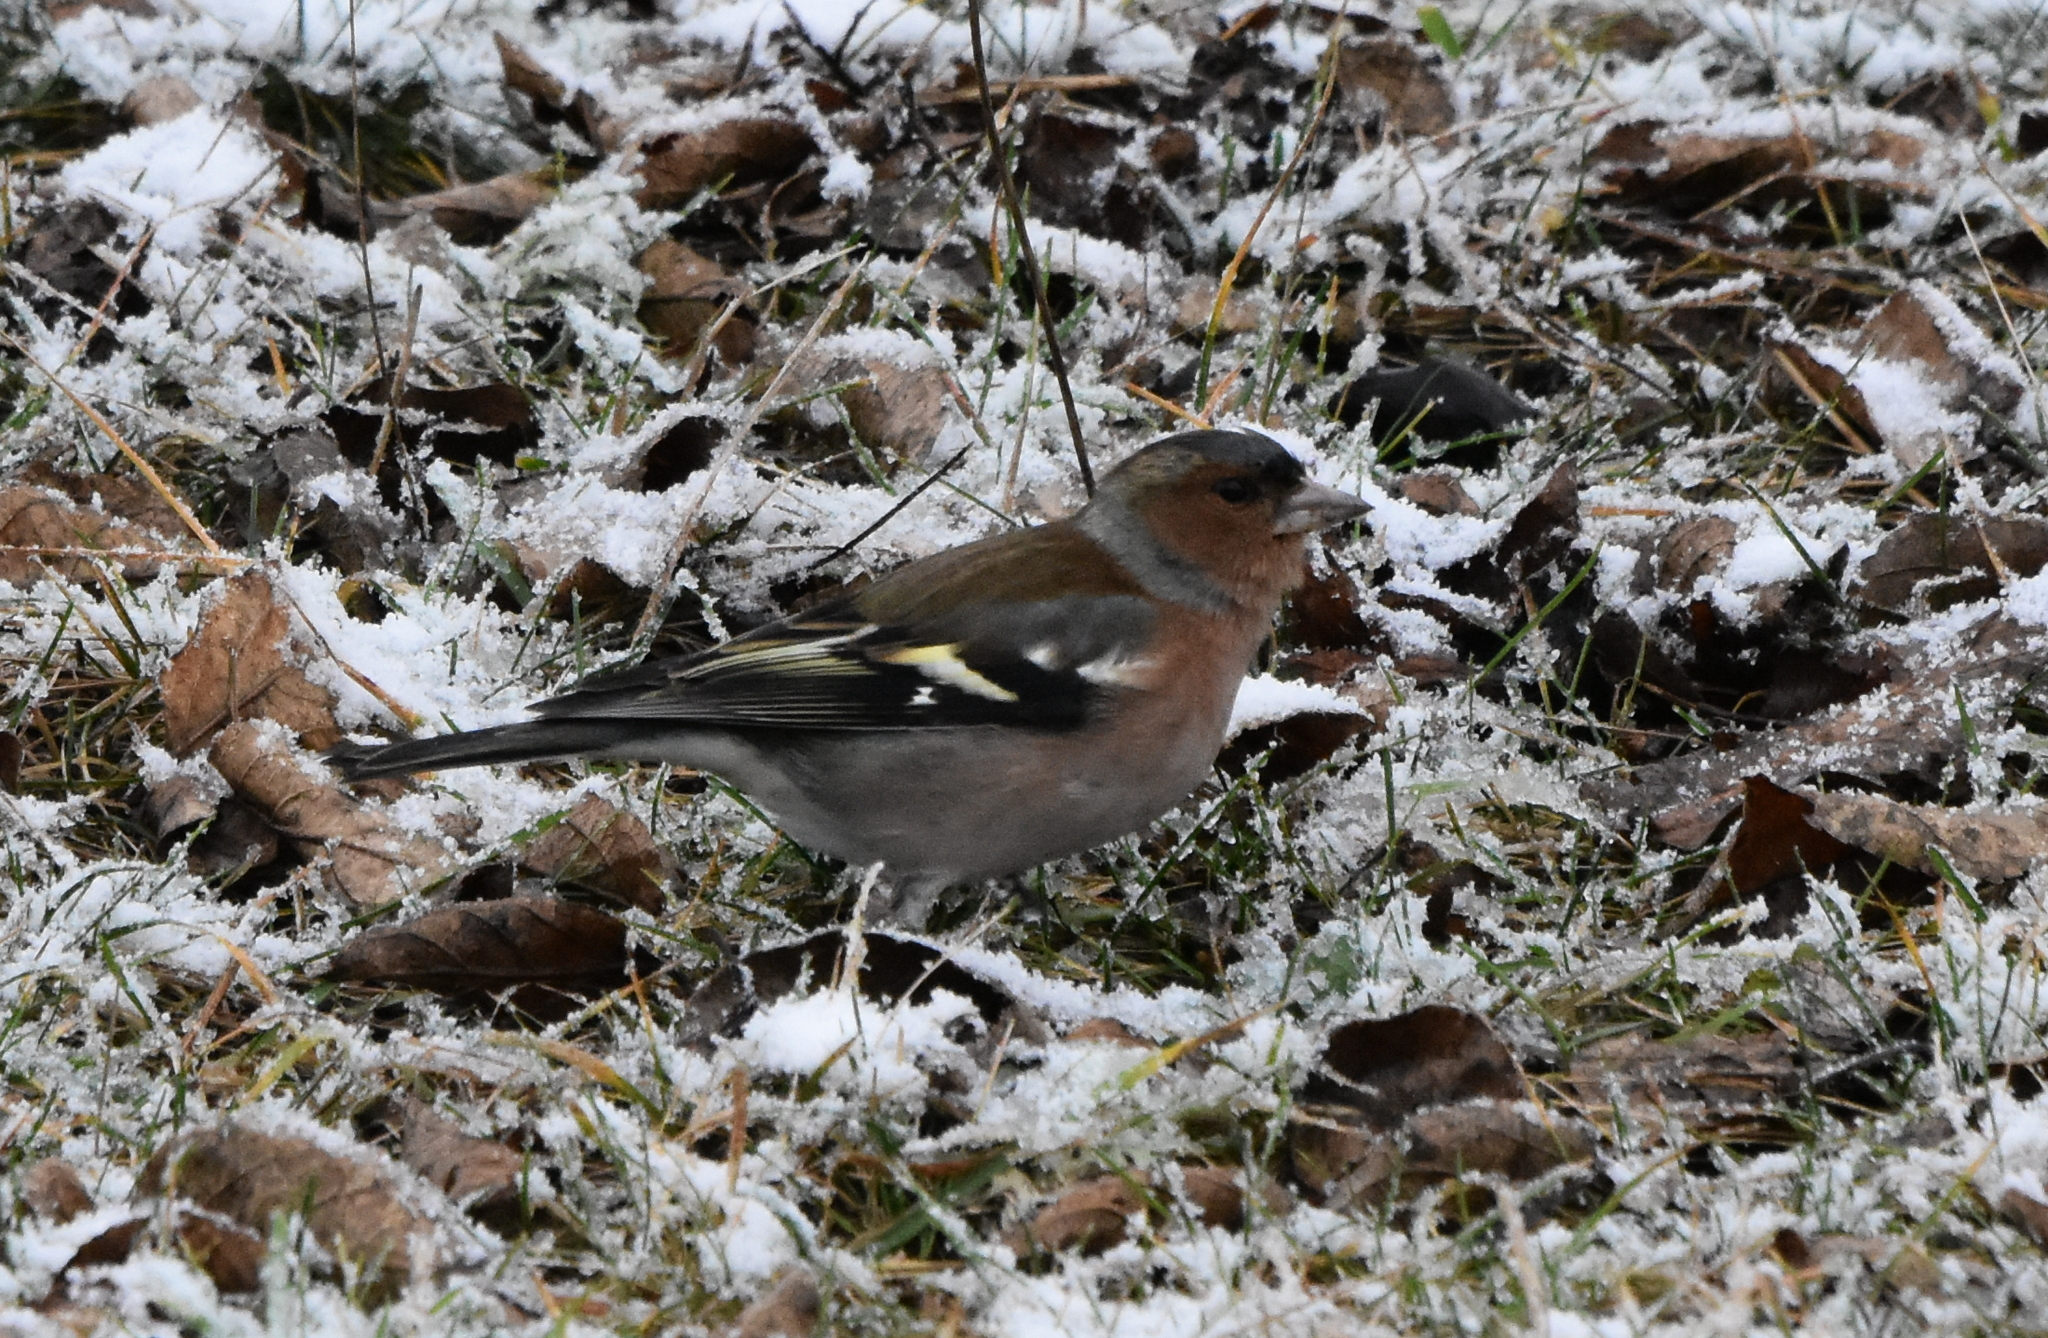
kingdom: Animalia
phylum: Chordata
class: Aves
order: Passeriformes
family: Fringillidae
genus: Fringilla
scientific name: Fringilla coelebs
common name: Common chaffinch
